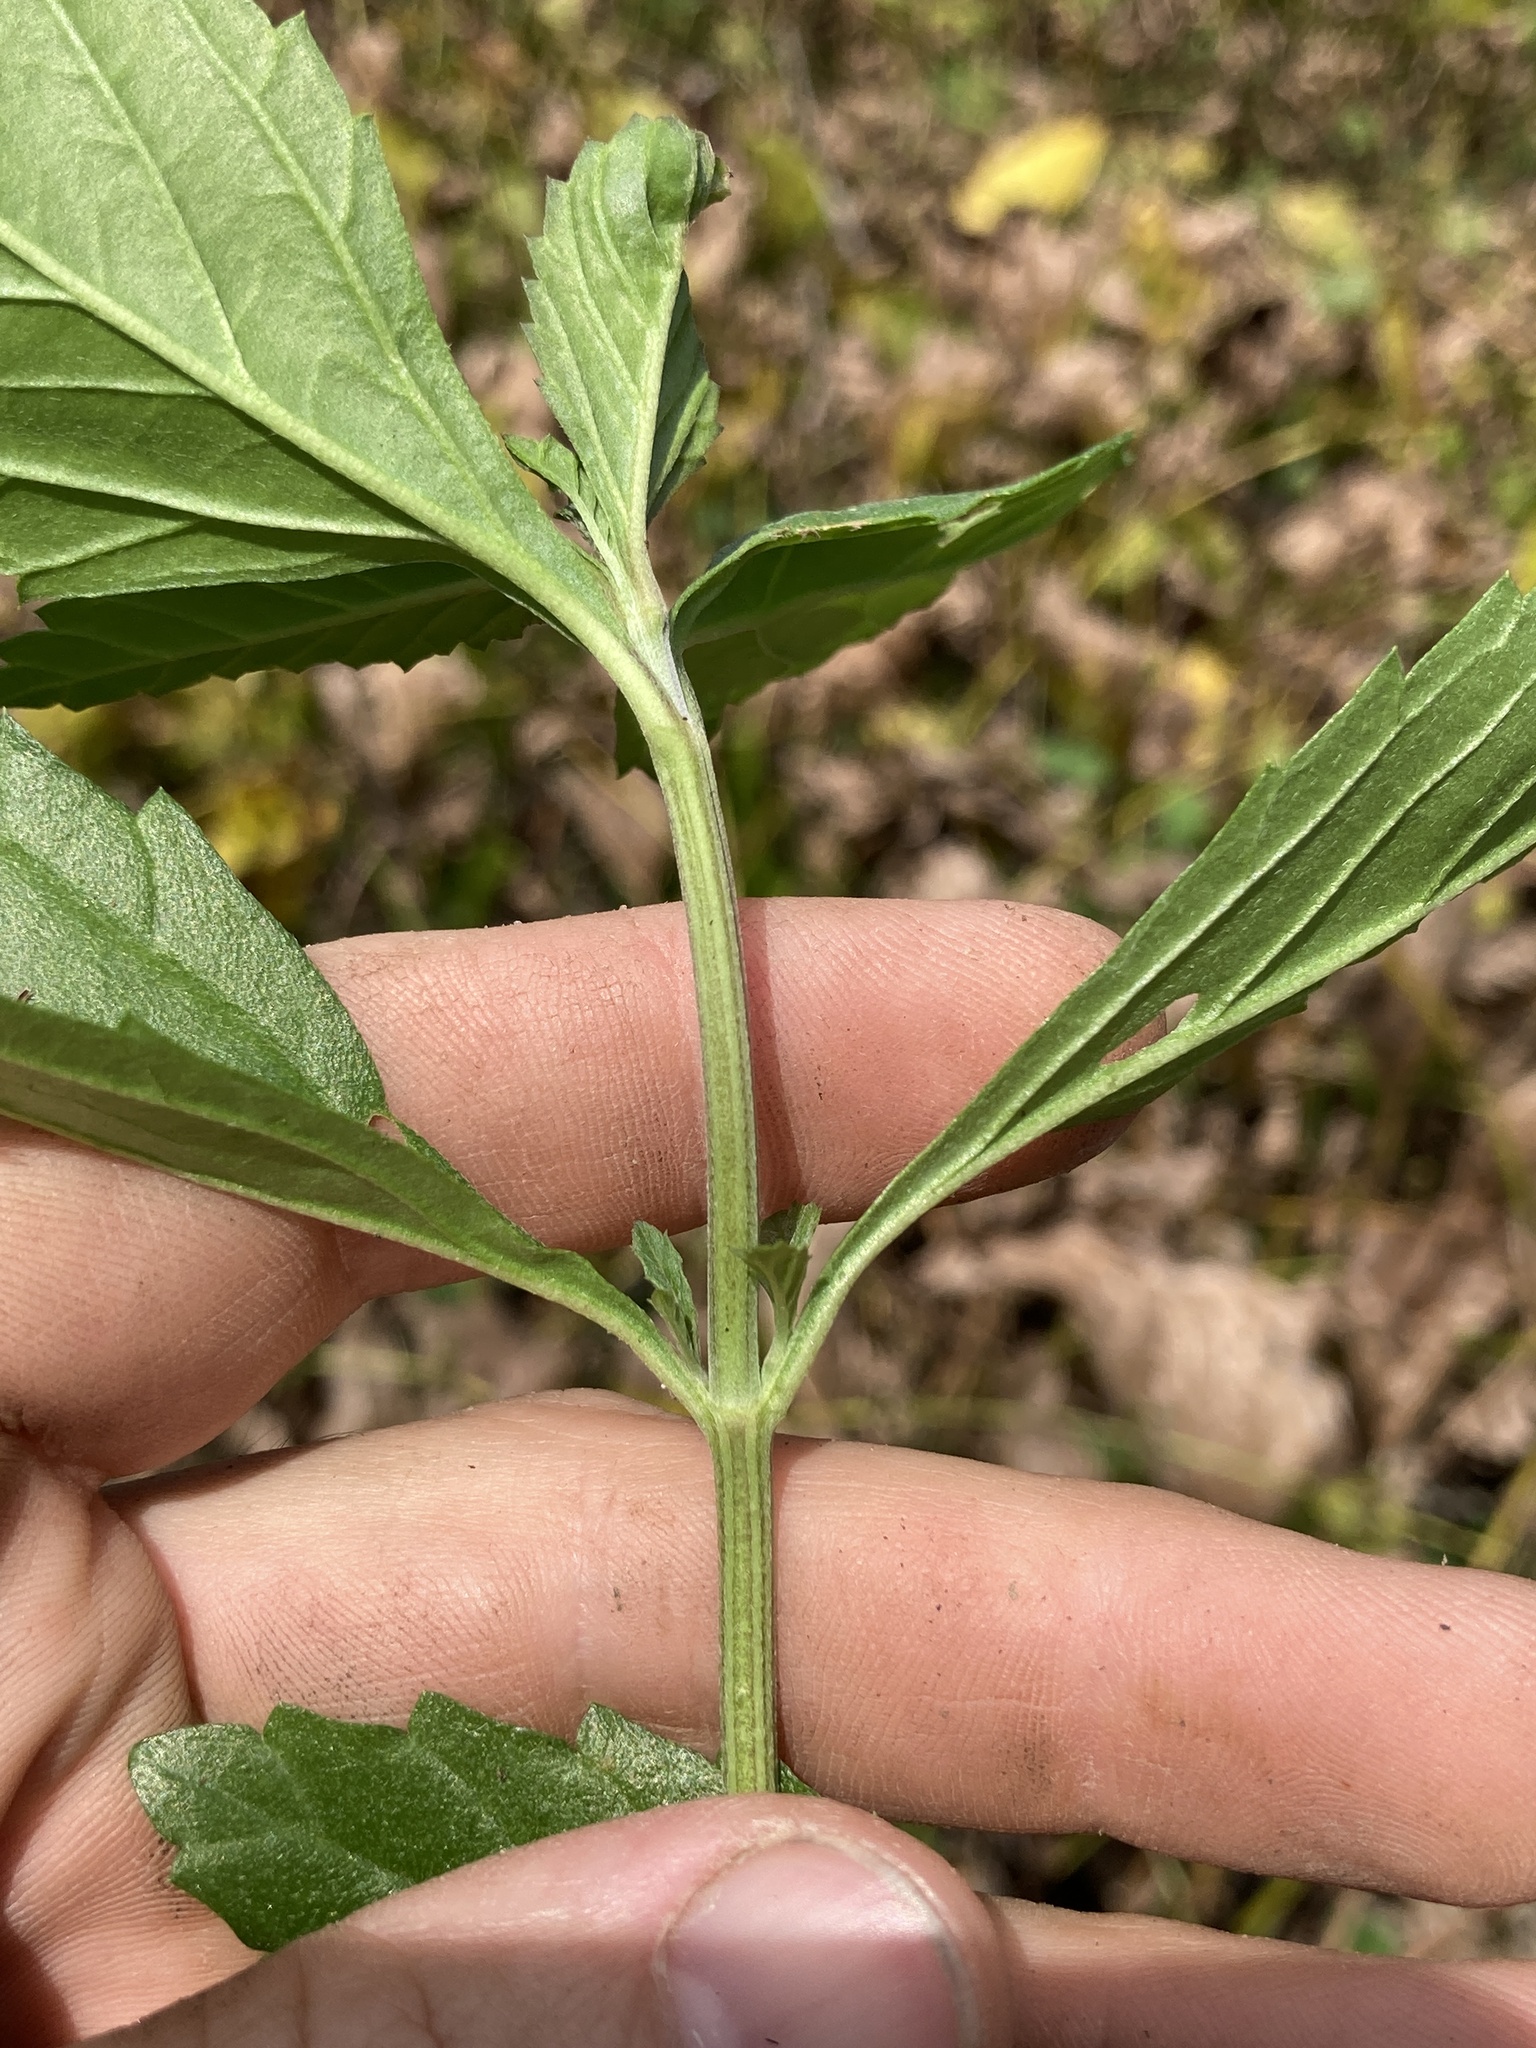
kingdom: Plantae
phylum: Tracheophyta
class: Magnoliopsida
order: Lamiales
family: Verbenaceae
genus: Phyla
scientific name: Phyla lanceolata
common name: Northern fogfruit
